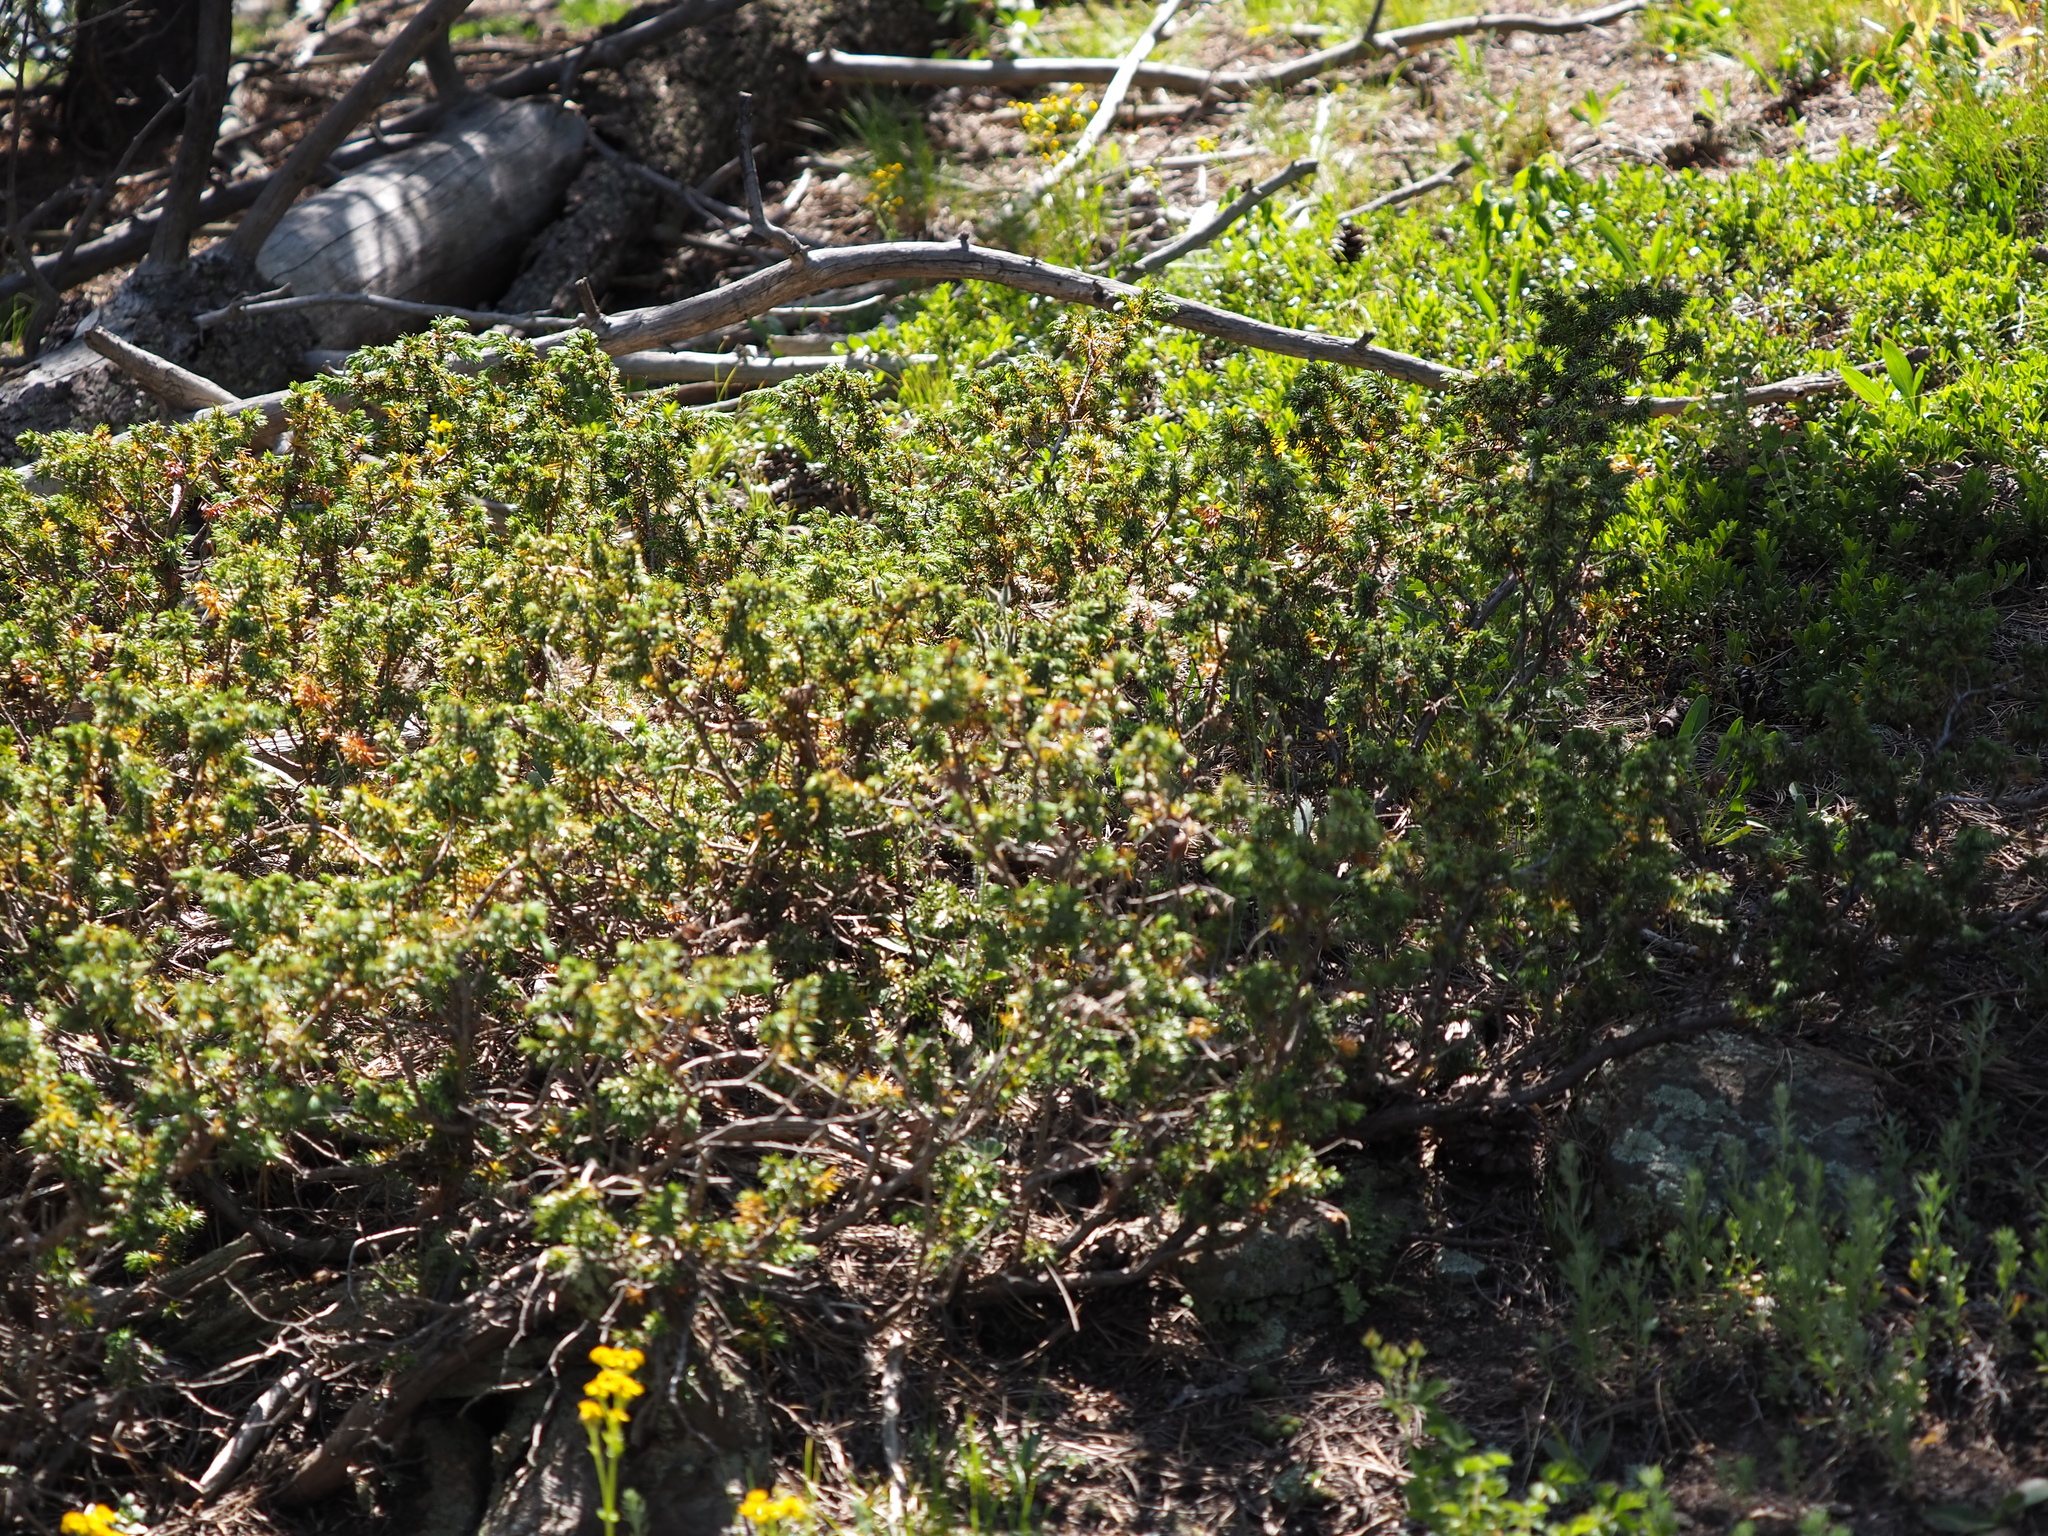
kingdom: Plantae
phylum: Tracheophyta
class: Pinopsida
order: Pinales
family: Cupressaceae
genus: Juniperus
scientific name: Juniperus communis
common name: Common juniper
